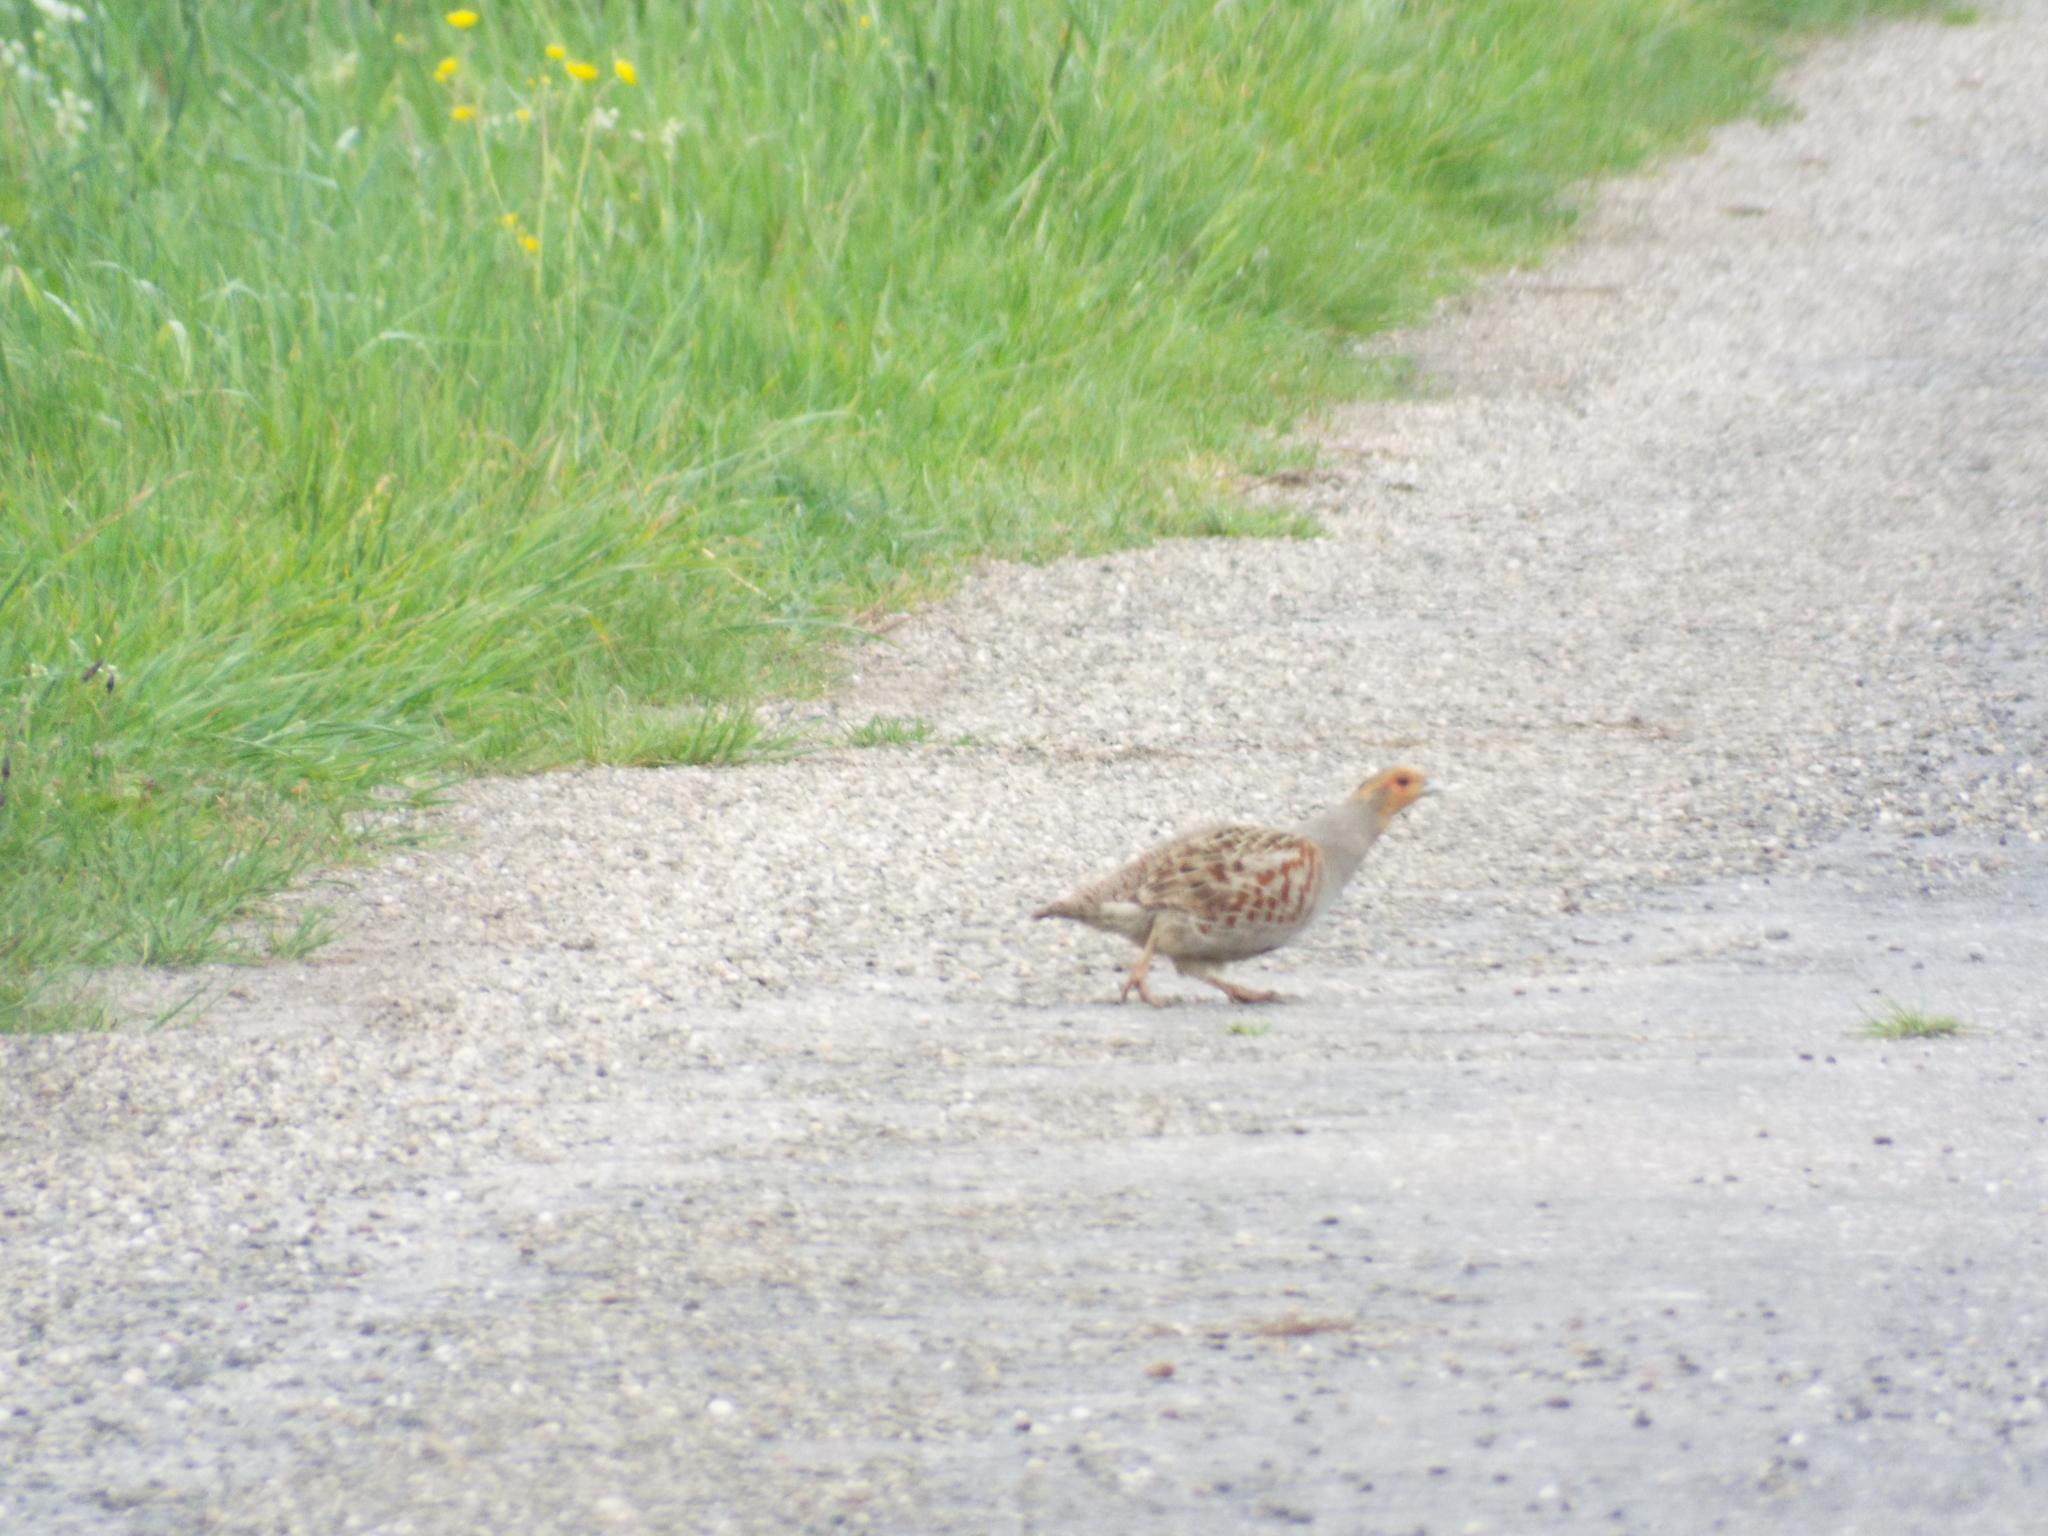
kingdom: Animalia
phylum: Chordata
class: Aves
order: Galliformes
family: Phasianidae
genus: Perdix
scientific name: Perdix perdix
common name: Grey partridge
